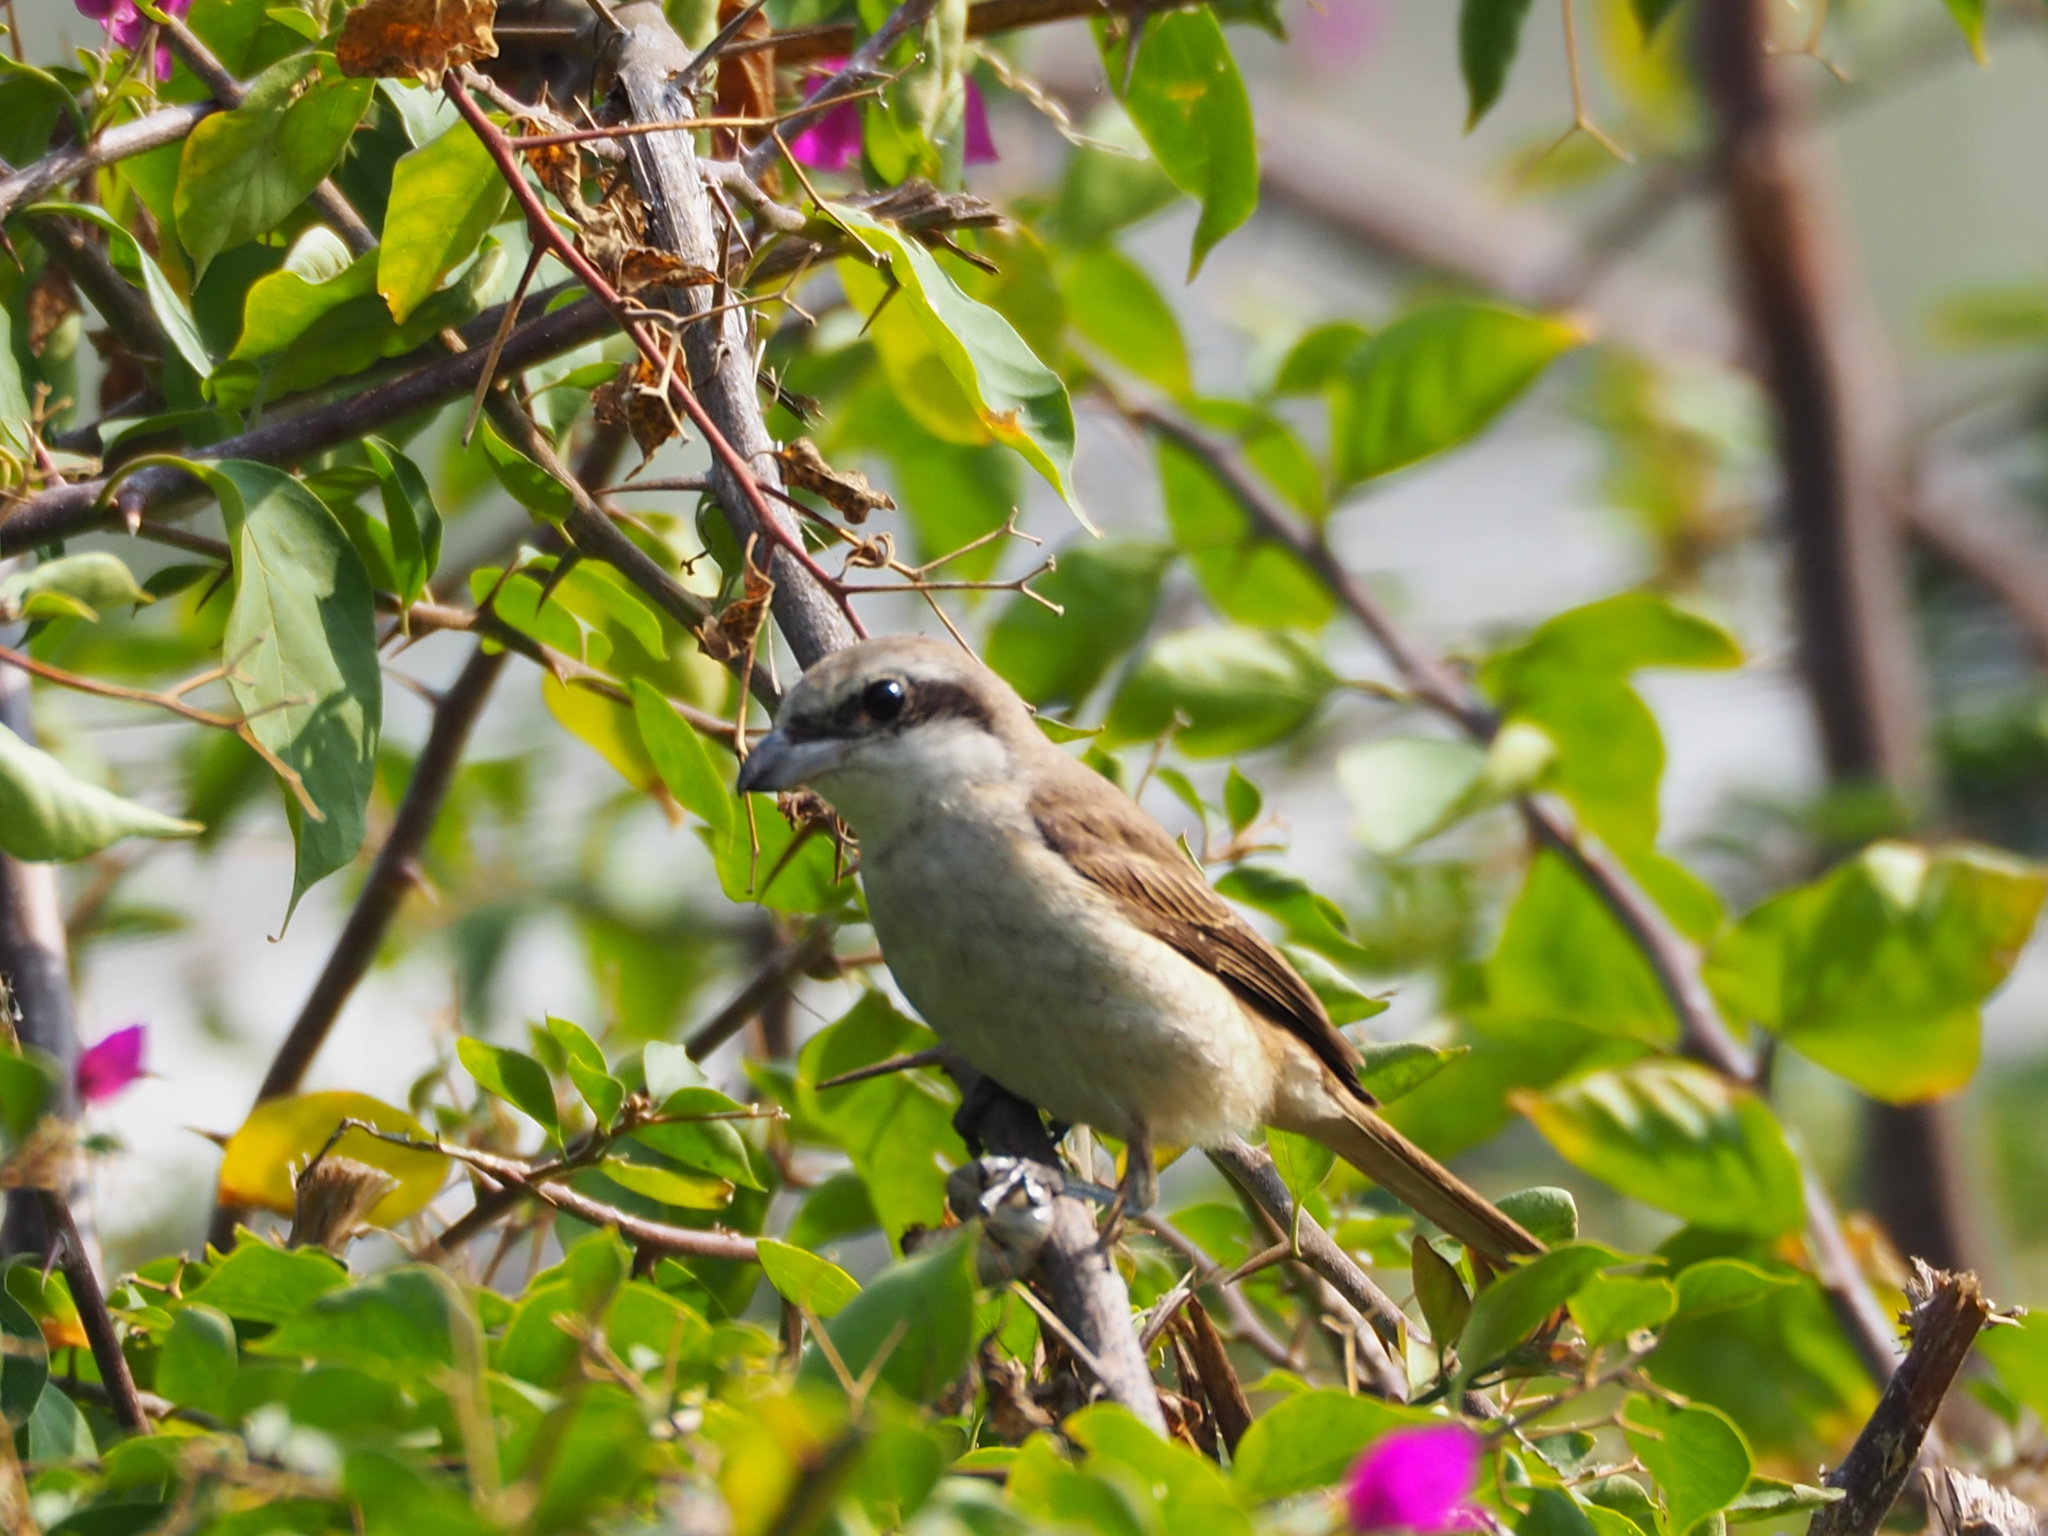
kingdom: Animalia
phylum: Chordata
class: Aves
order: Passeriformes
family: Laniidae
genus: Lanius
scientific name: Lanius cristatus
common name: Brown shrike
